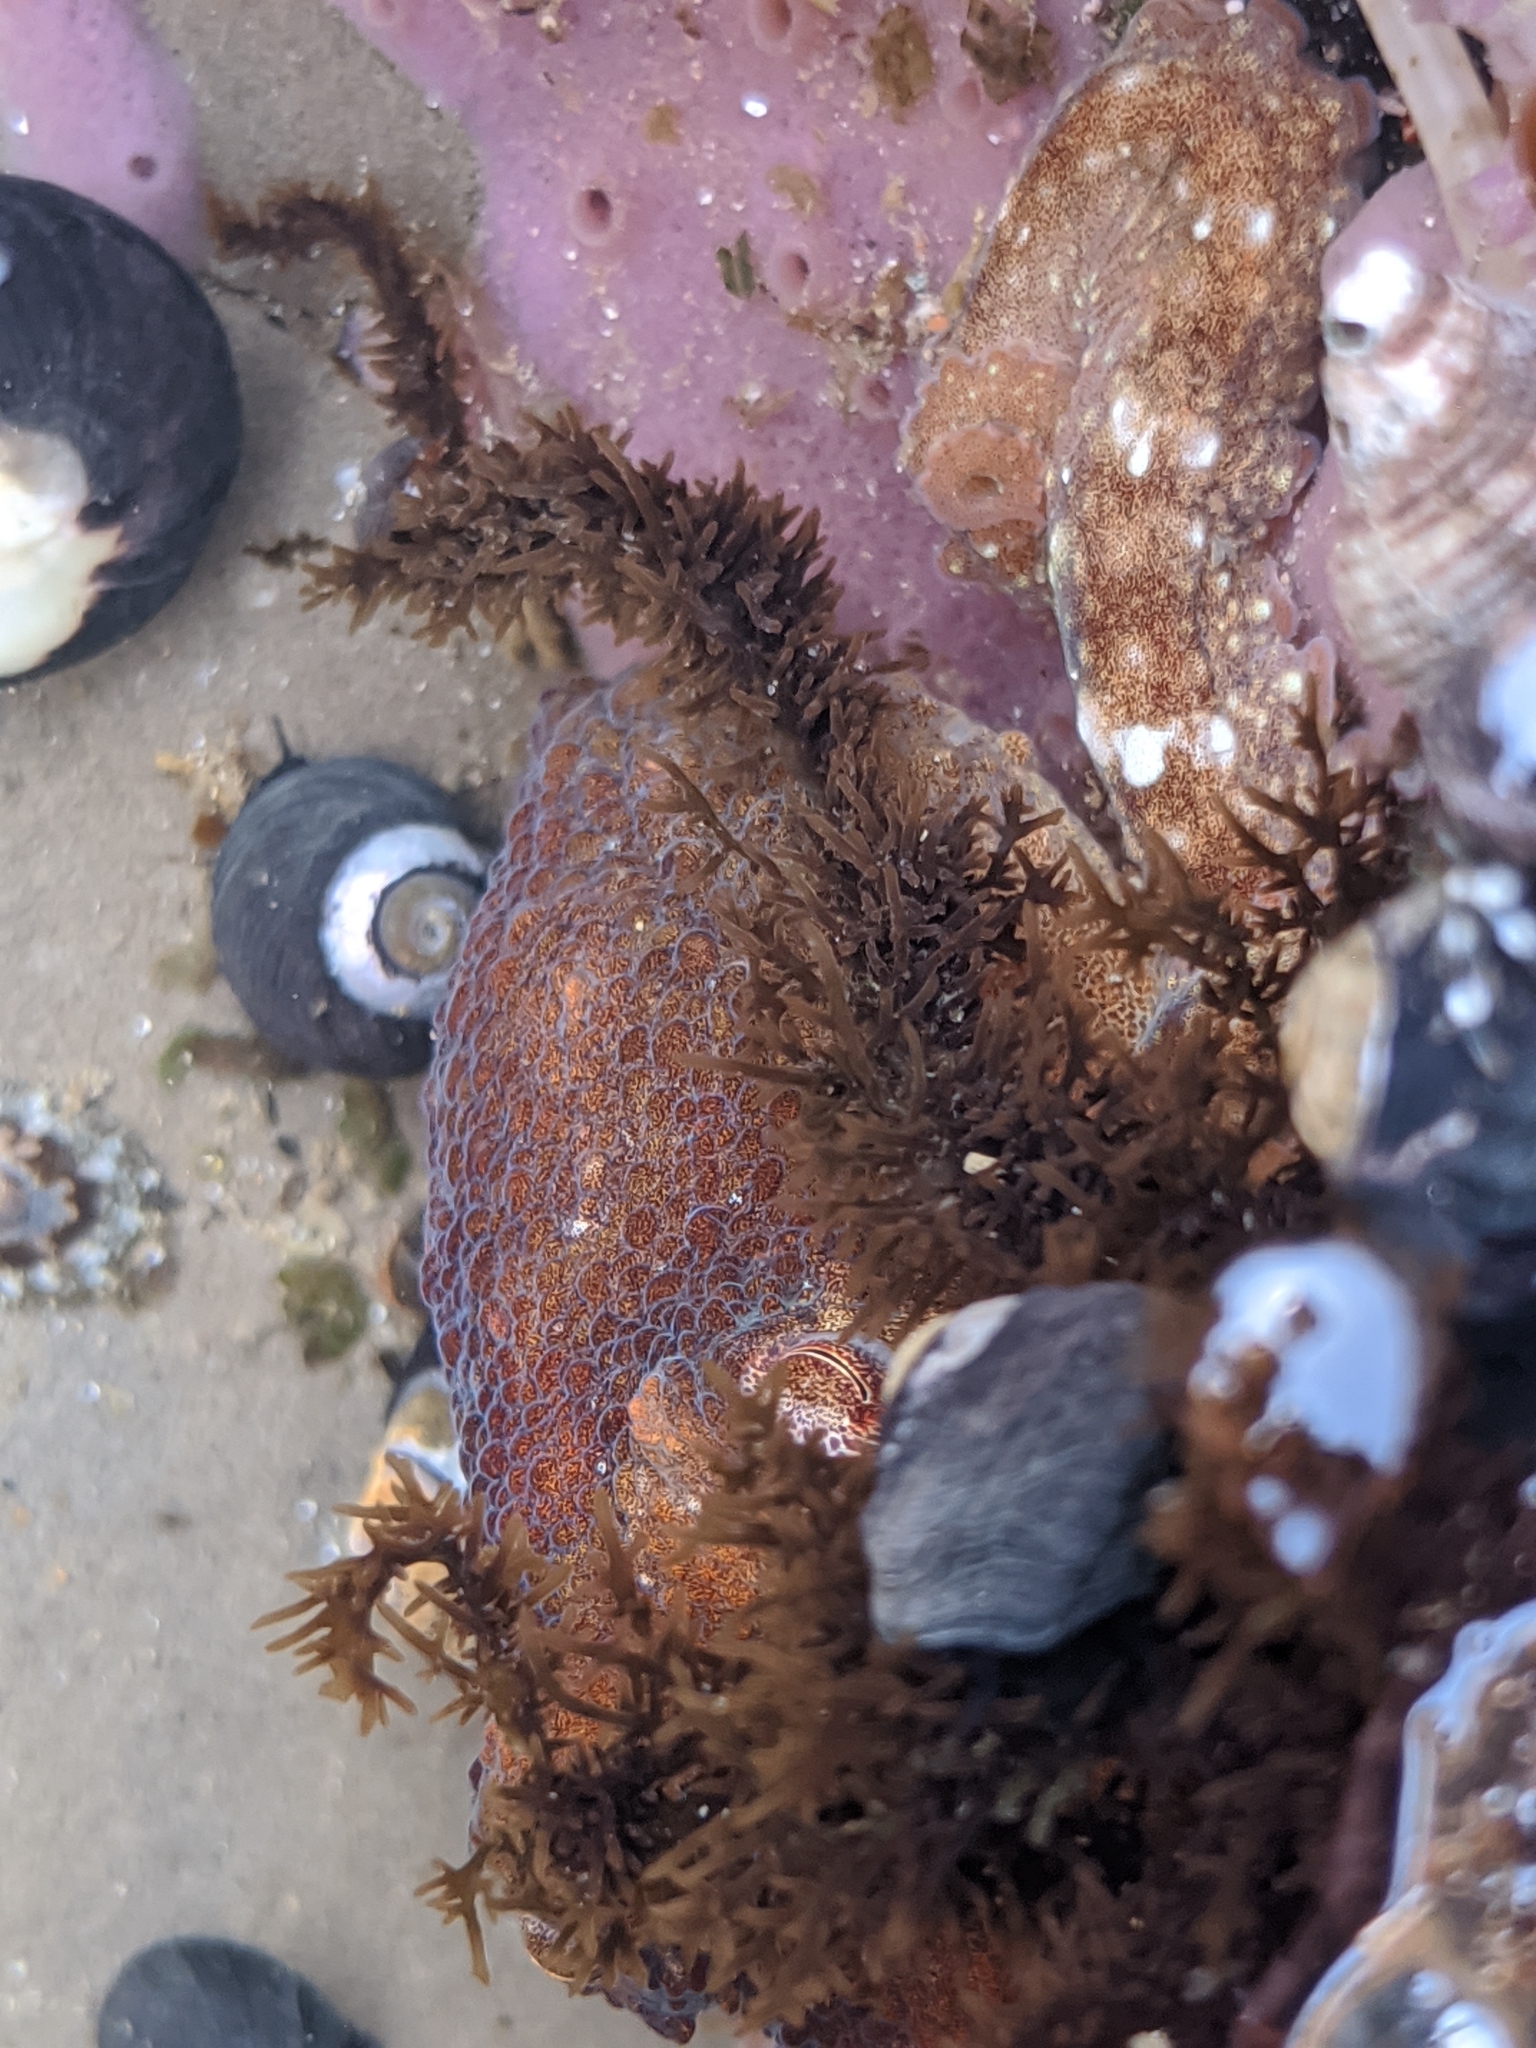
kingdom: Animalia
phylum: Mollusca
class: Cephalopoda
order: Octopoda
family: Octopodidae
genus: Octopus
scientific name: Octopus rubescens
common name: East pacific red octopus
